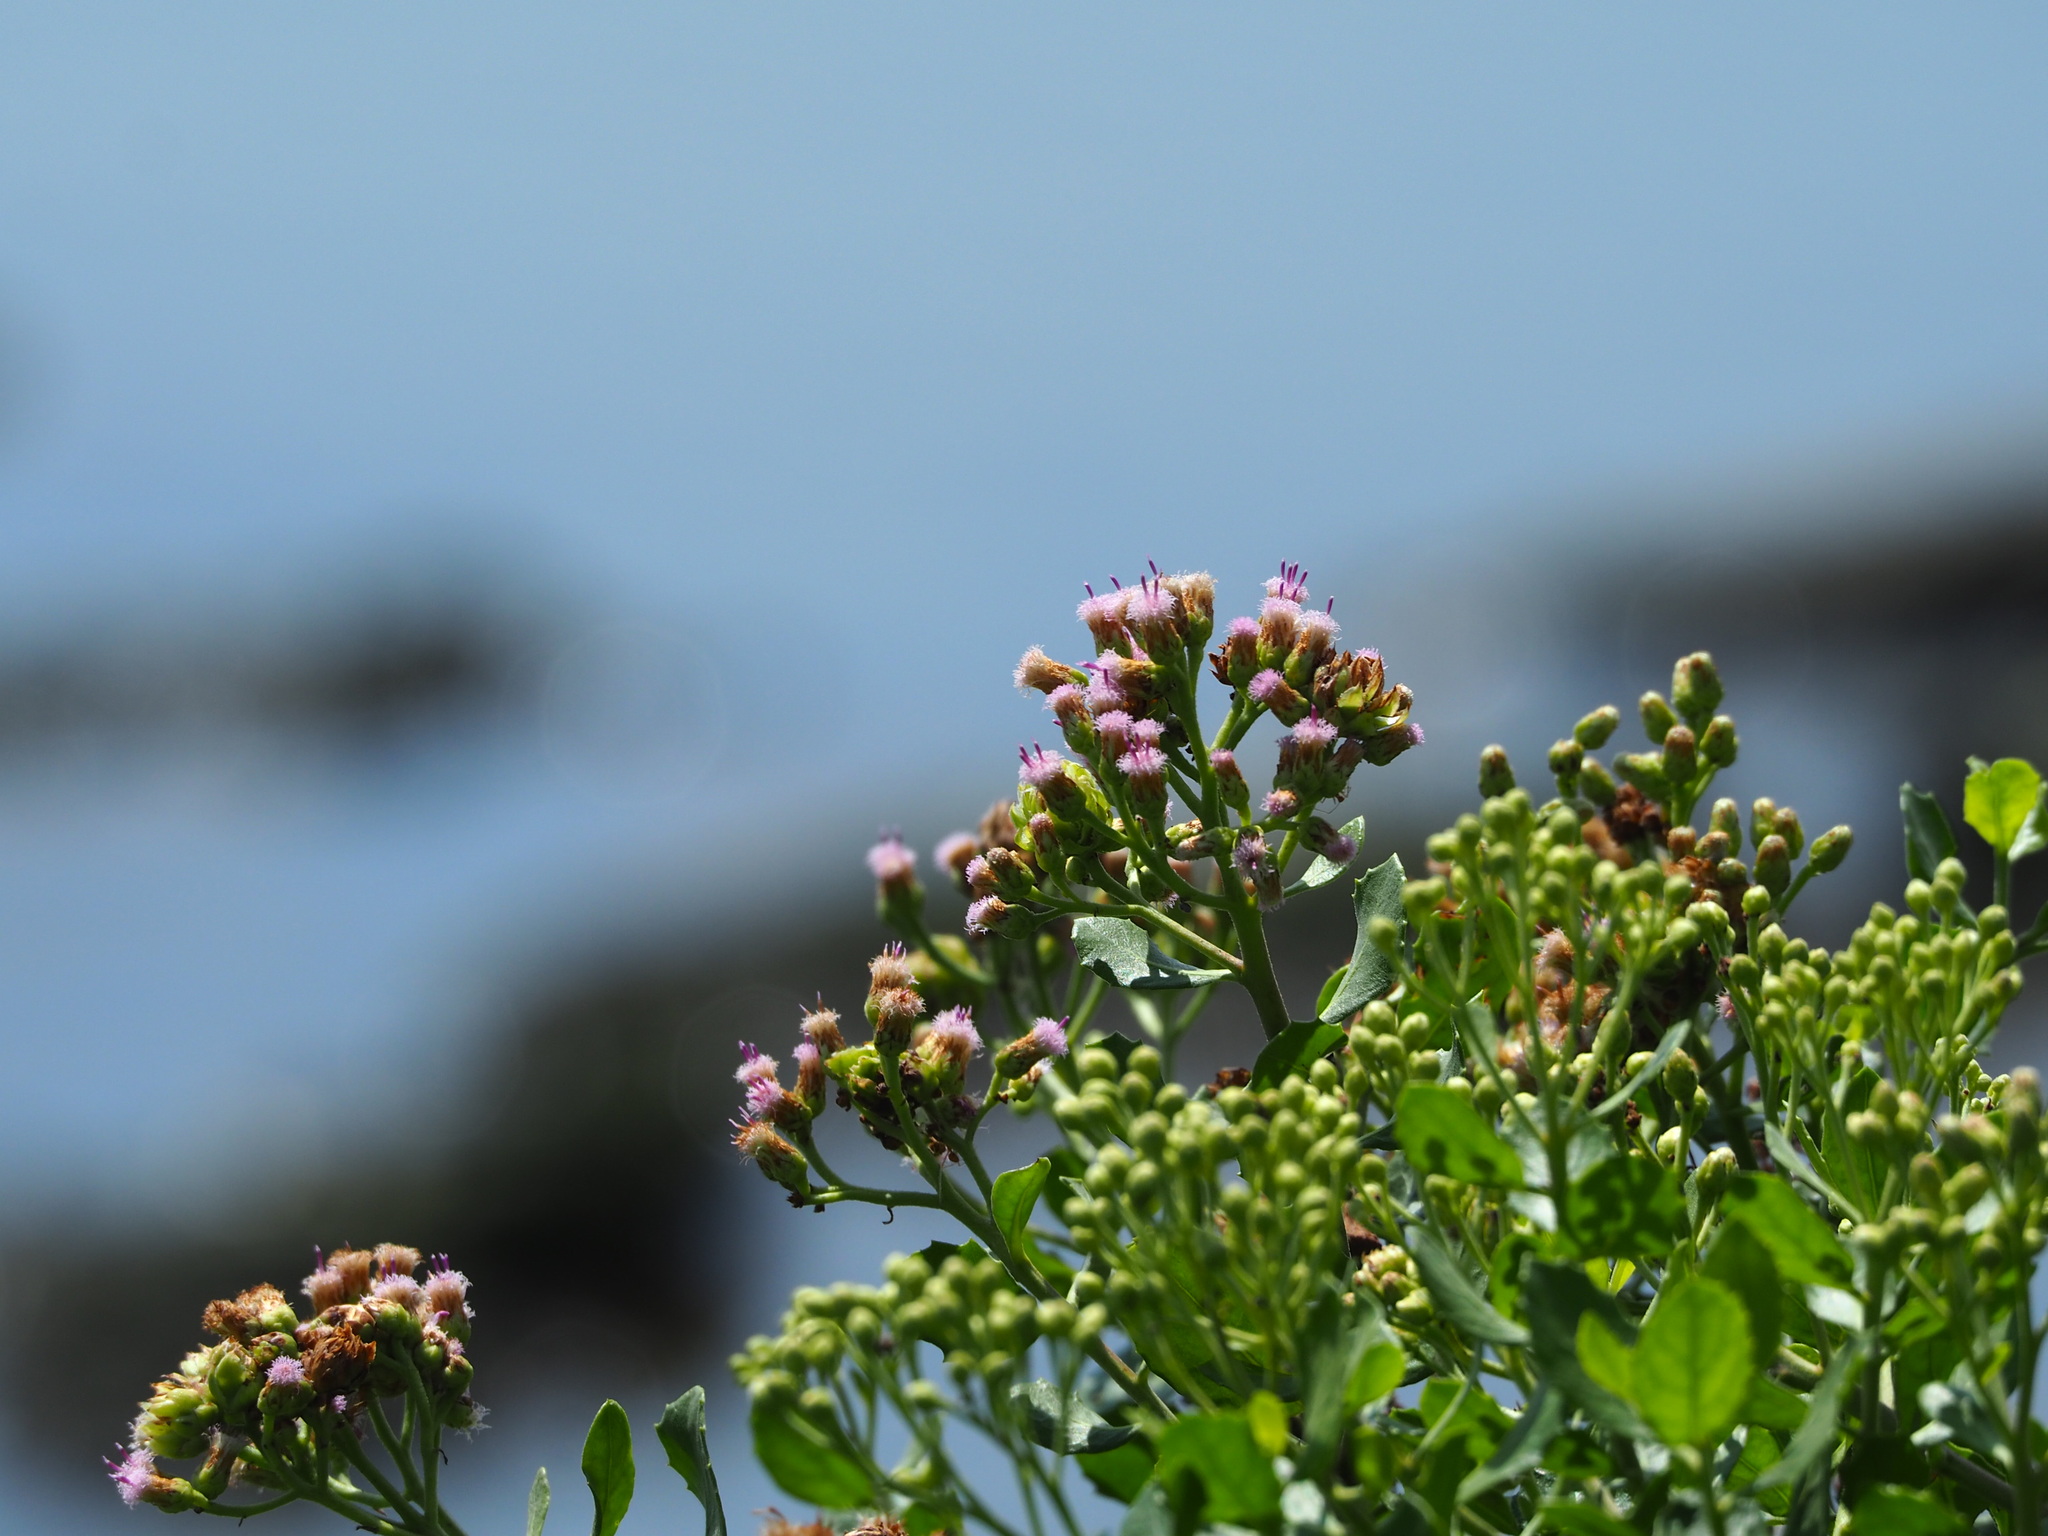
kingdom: Plantae
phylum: Tracheophyta
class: Magnoliopsida
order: Asterales
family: Asteraceae
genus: Pluchea
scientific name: Pluchea indica
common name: Indian fleabane
